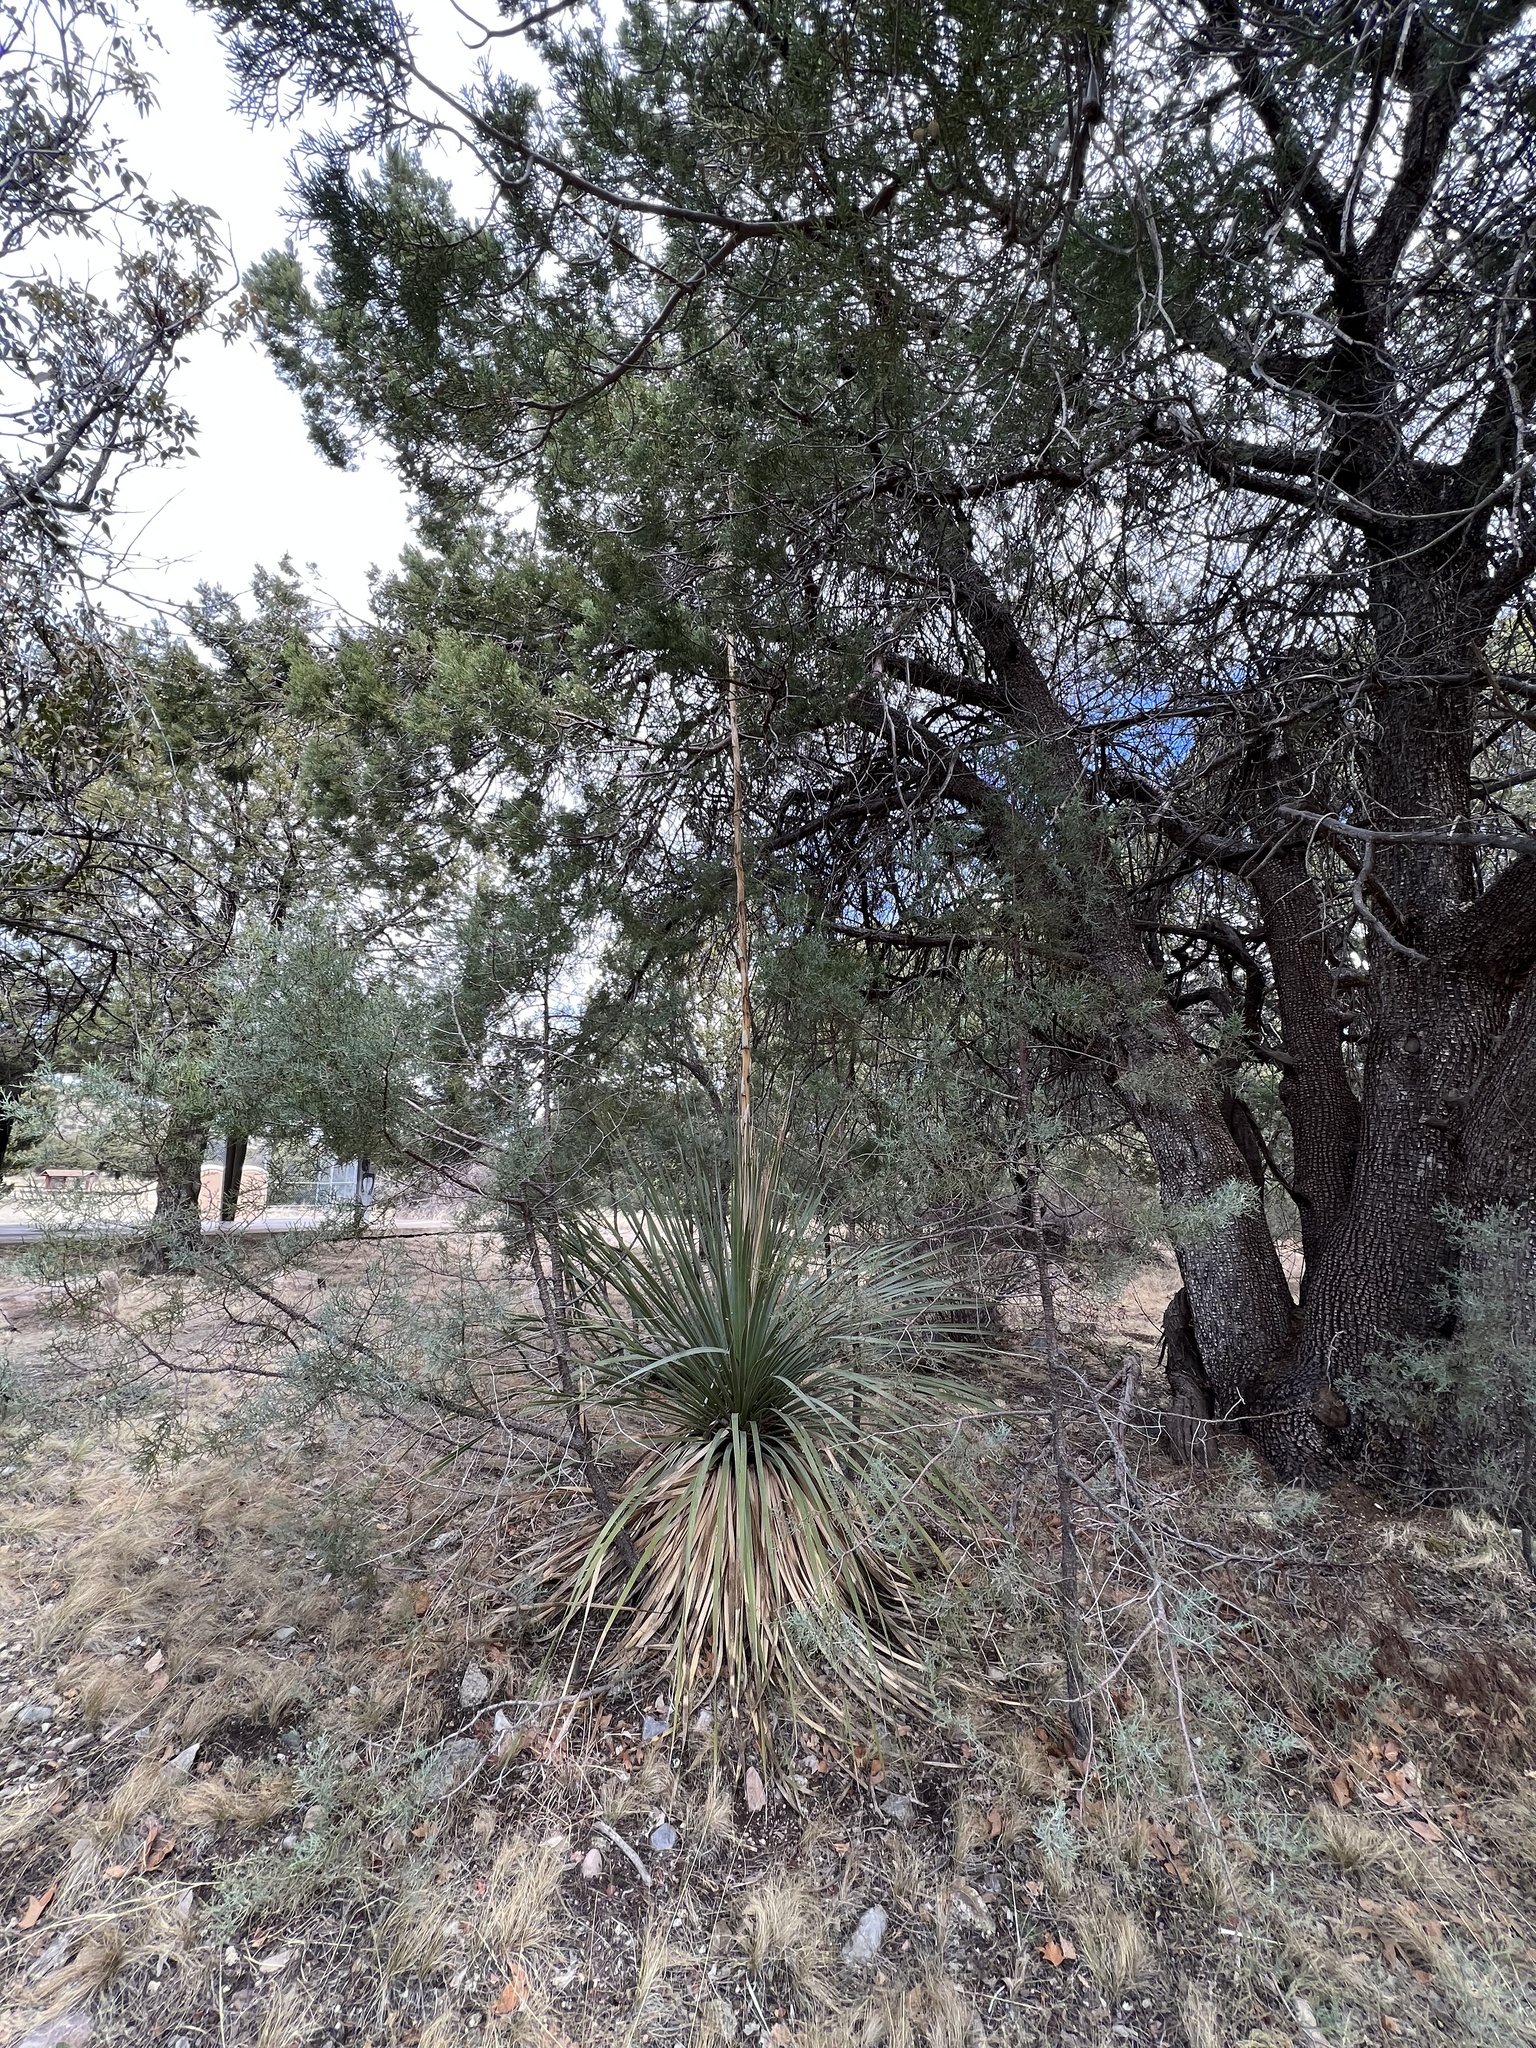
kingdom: Plantae
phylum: Tracheophyta
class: Liliopsida
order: Asparagales
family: Asparagaceae
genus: Dasylirion
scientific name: Dasylirion wheeleri
